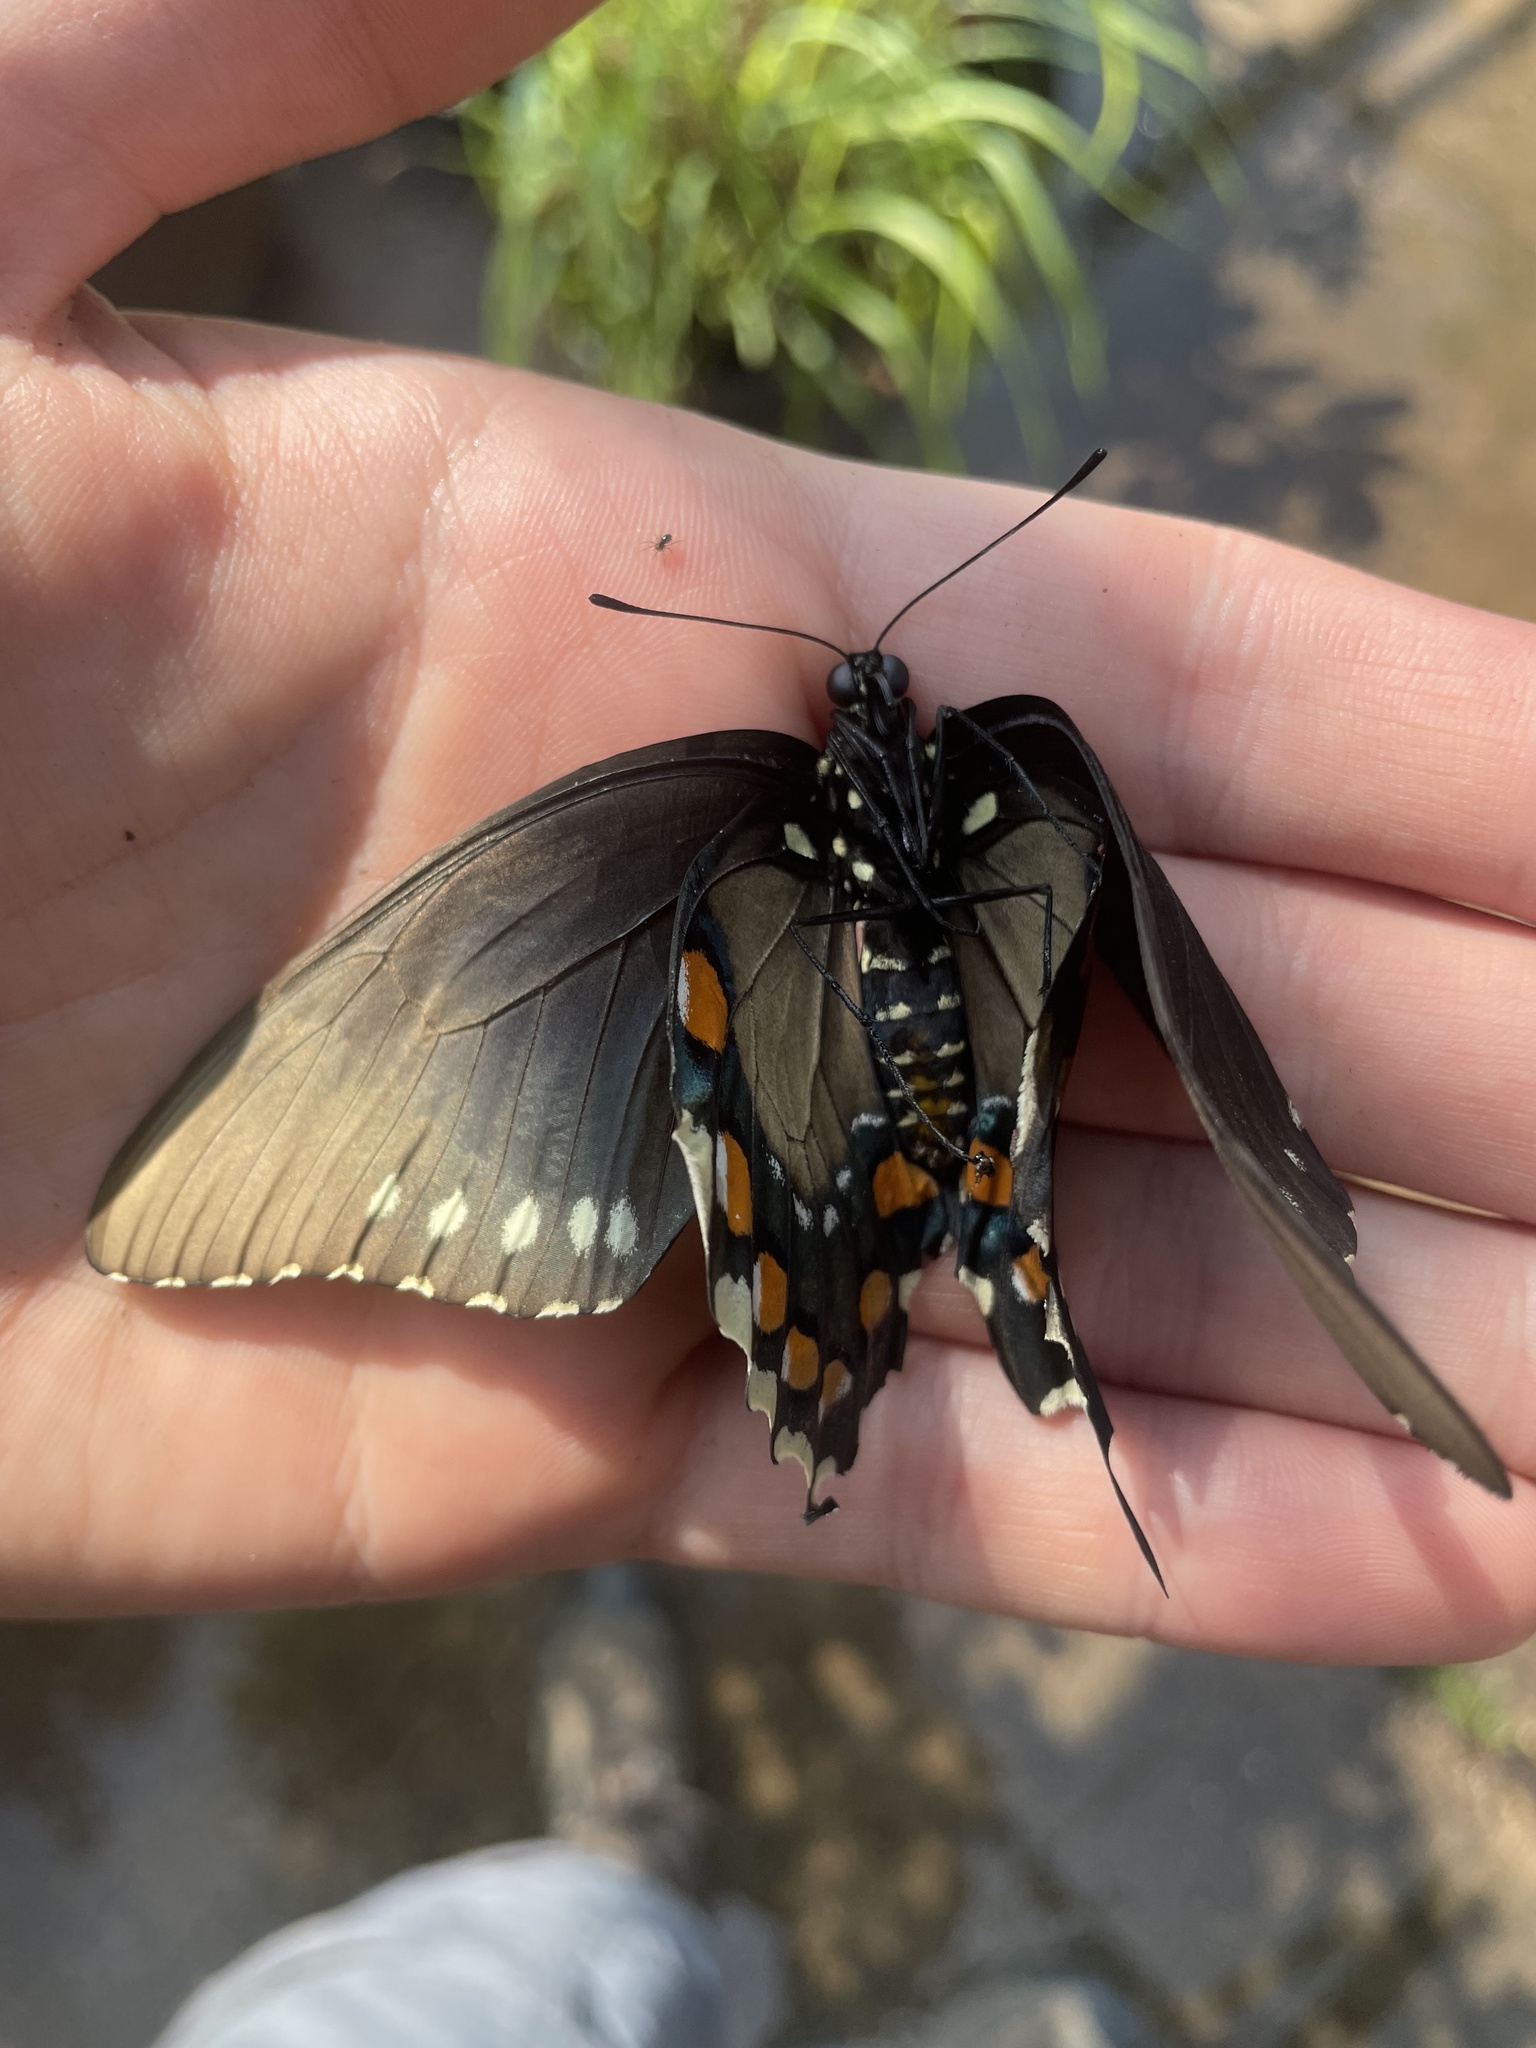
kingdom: Animalia
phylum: Arthropoda
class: Insecta
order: Lepidoptera
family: Papilionidae
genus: Battus
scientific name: Battus philenor
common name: Pipevine swallowtail
